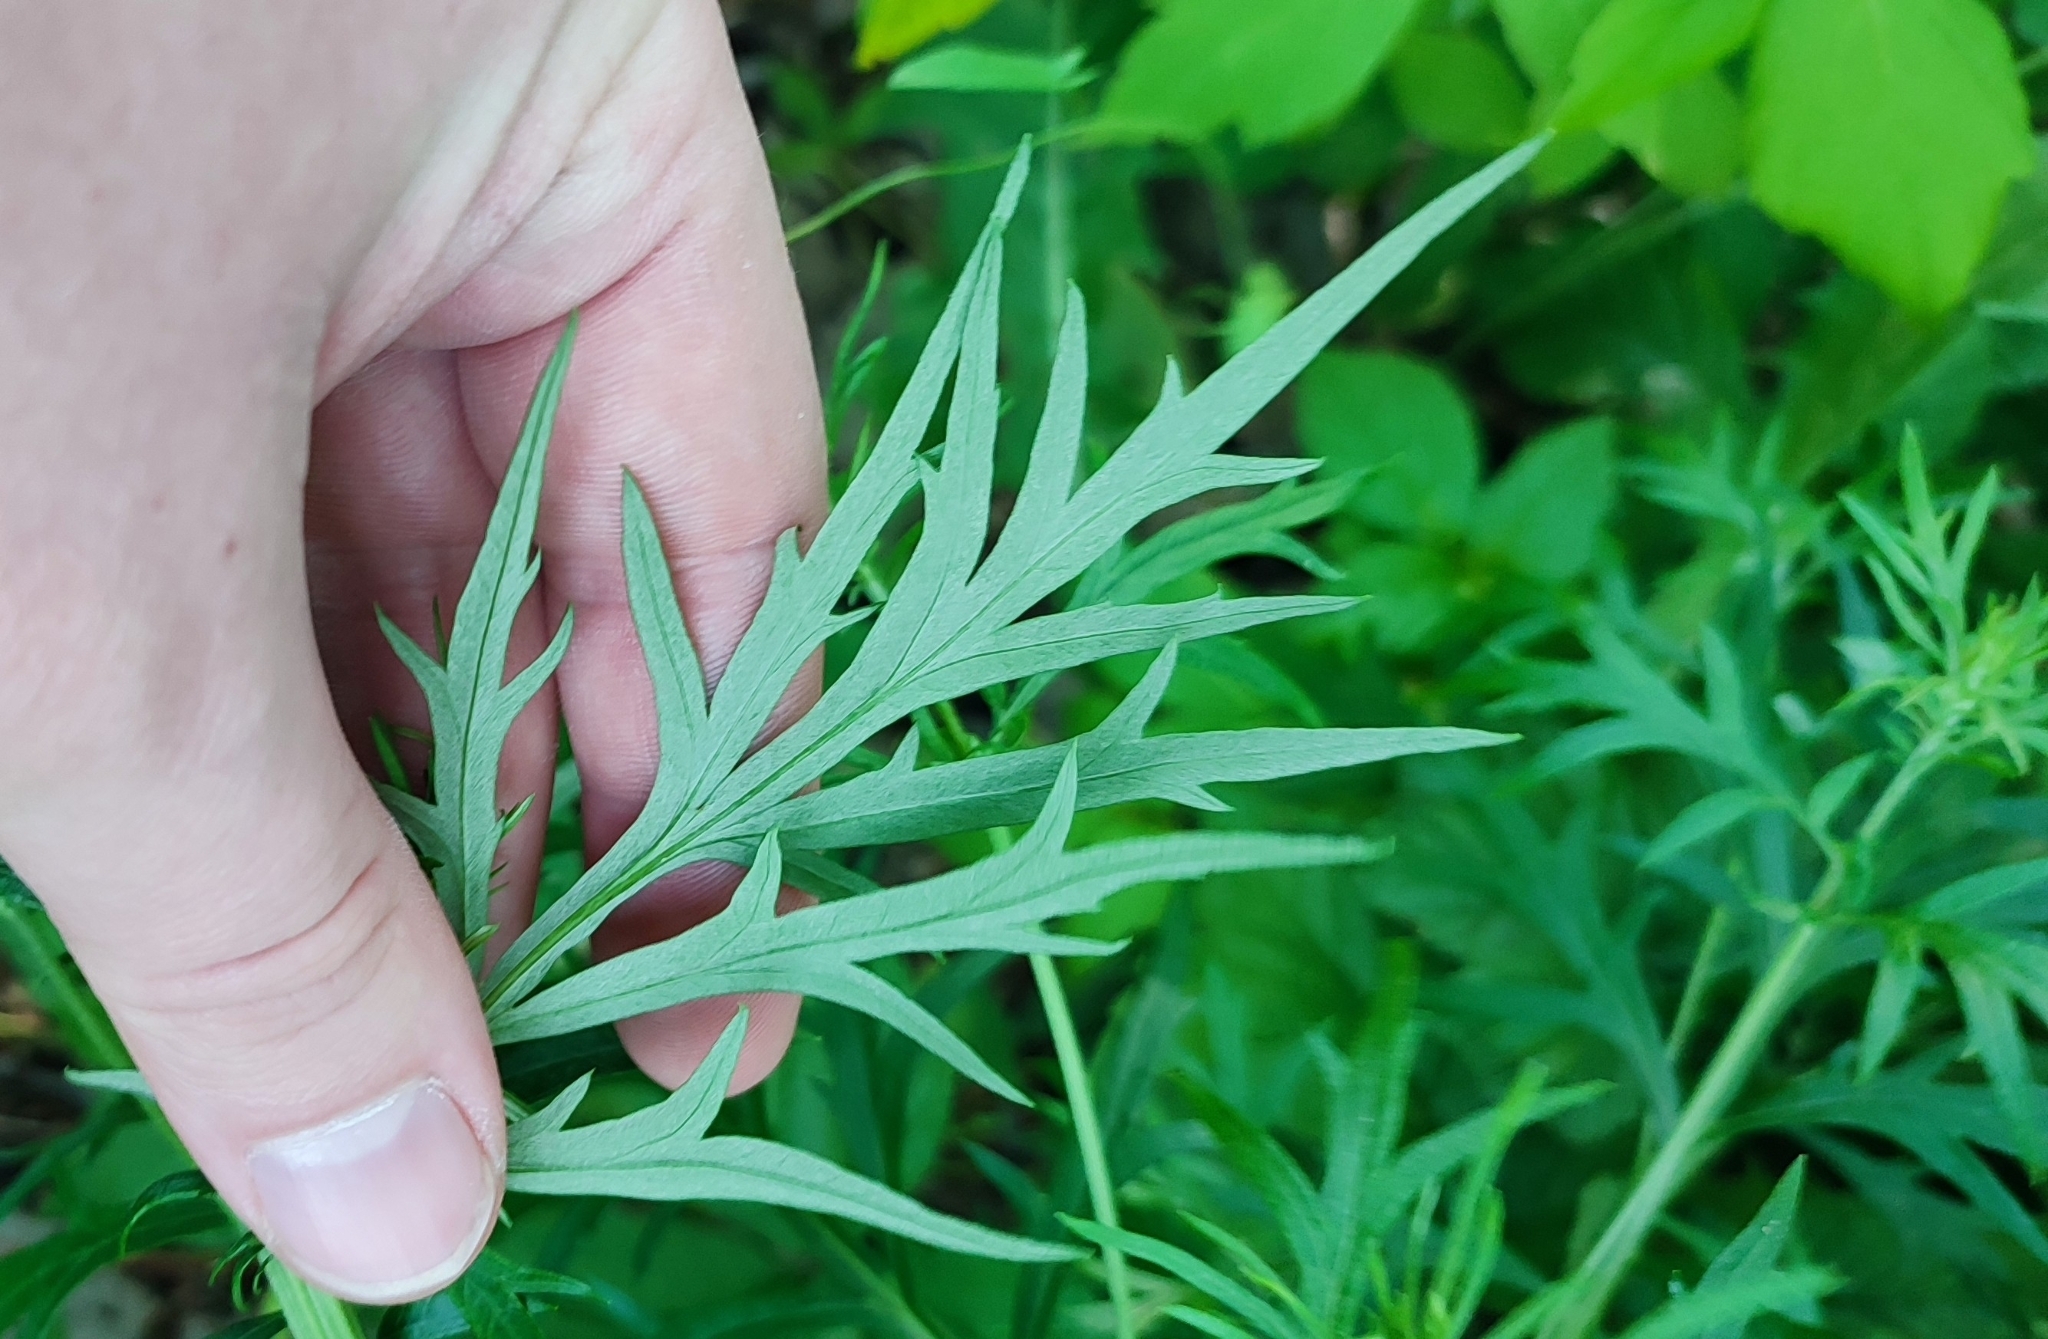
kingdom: Plantae
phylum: Tracheophyta
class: Magnoliopsida
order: Asterales
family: Asteraceae
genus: Artemisia
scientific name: Artemisia vulgaris
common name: Mugwort
